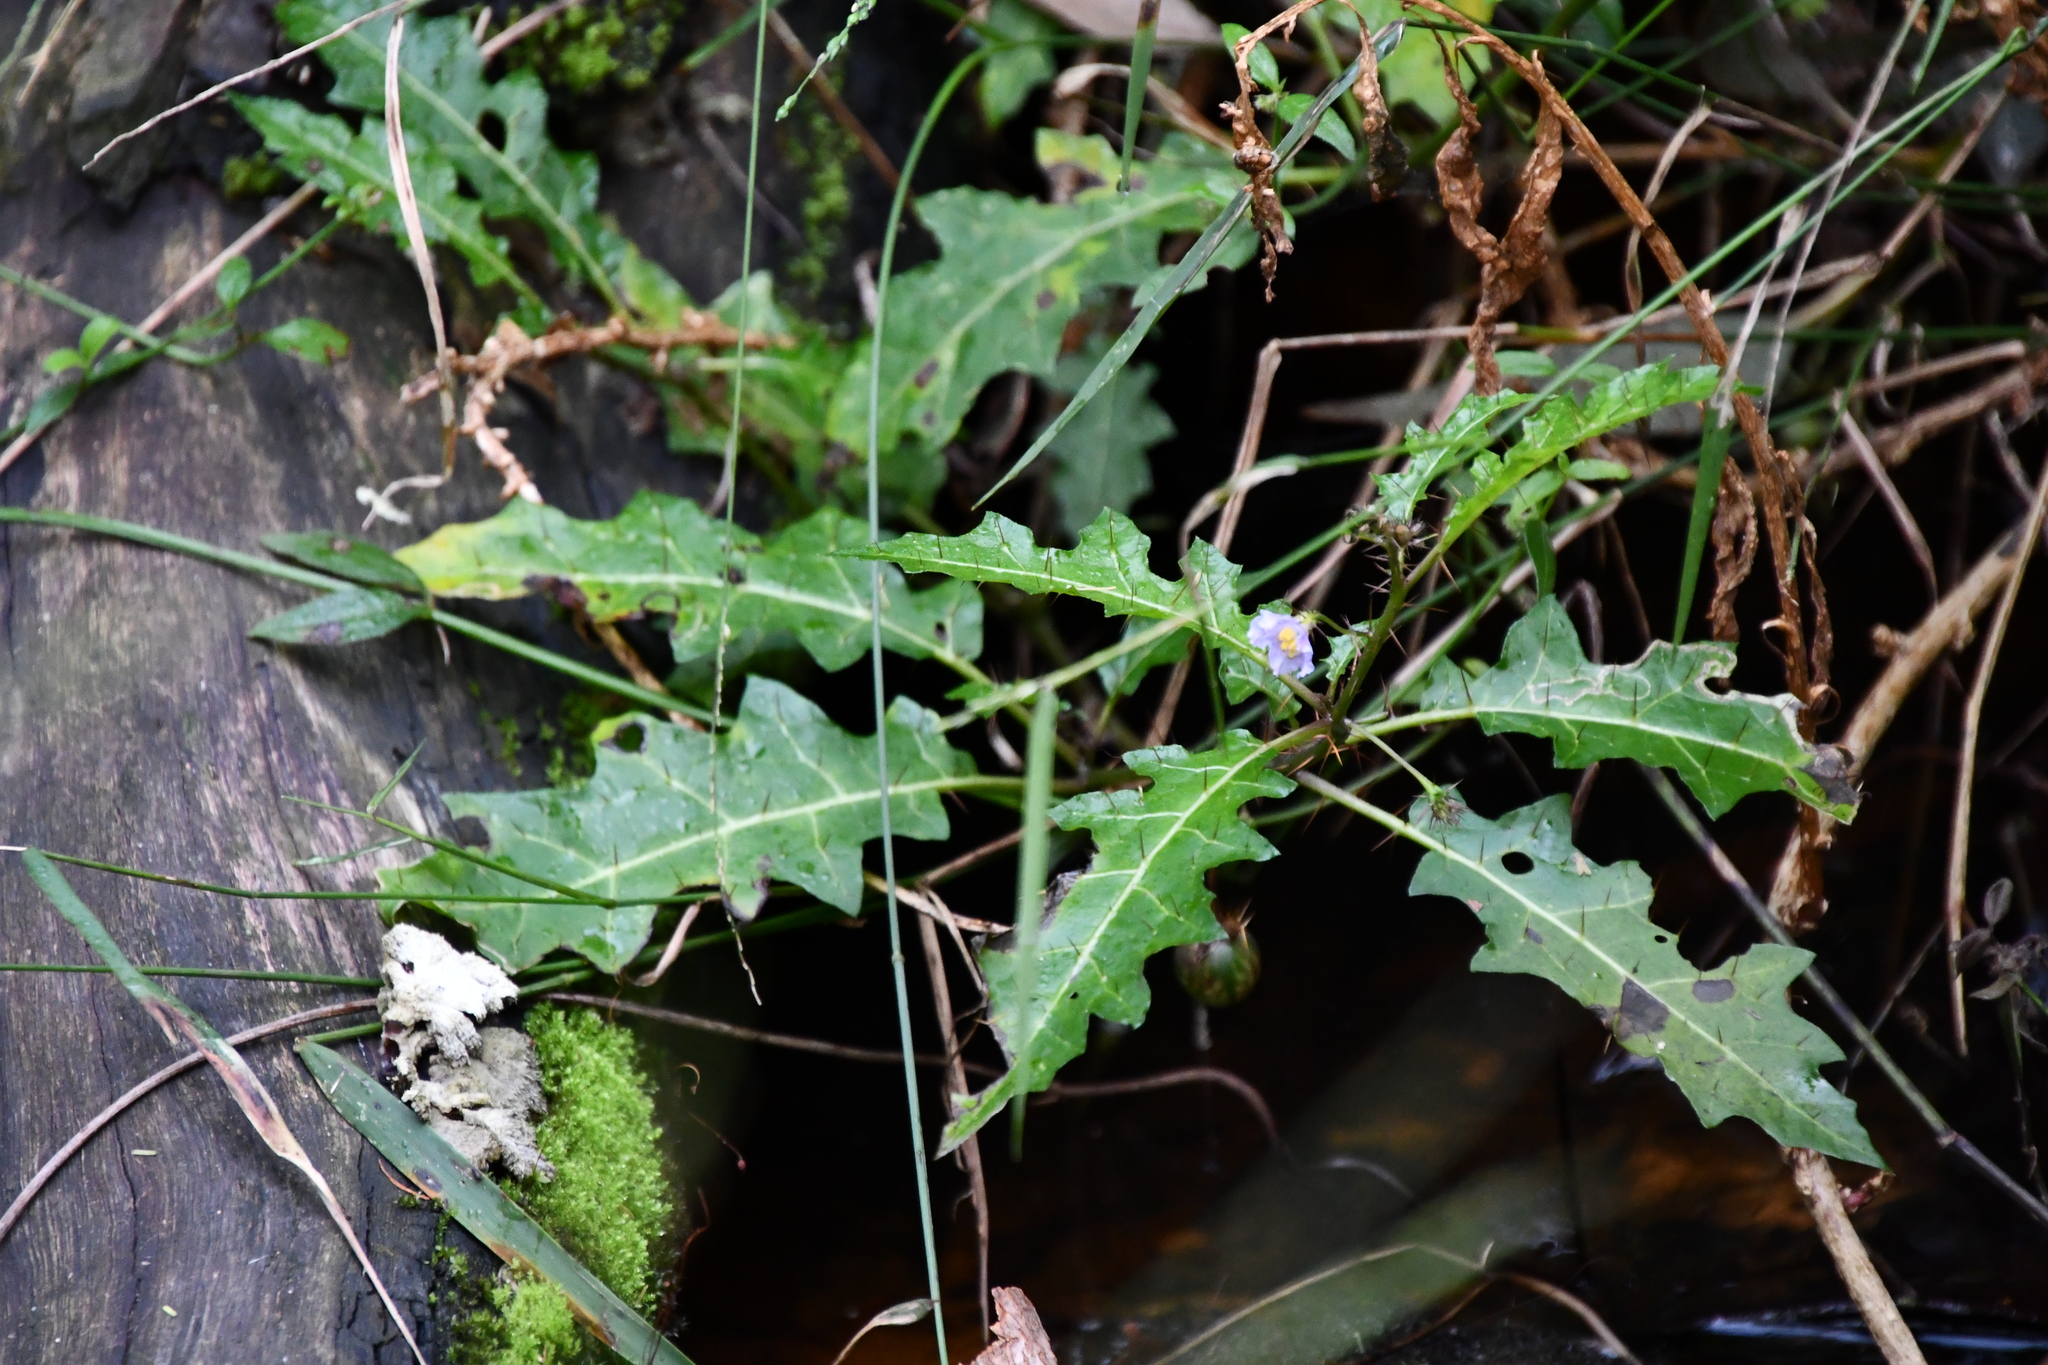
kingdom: Plantae
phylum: Tracheophyta
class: Magnoliopsida
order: Solanales
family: Solanaceae
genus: Solanum
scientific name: Solanum prinophyllum
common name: Forest nightshade
